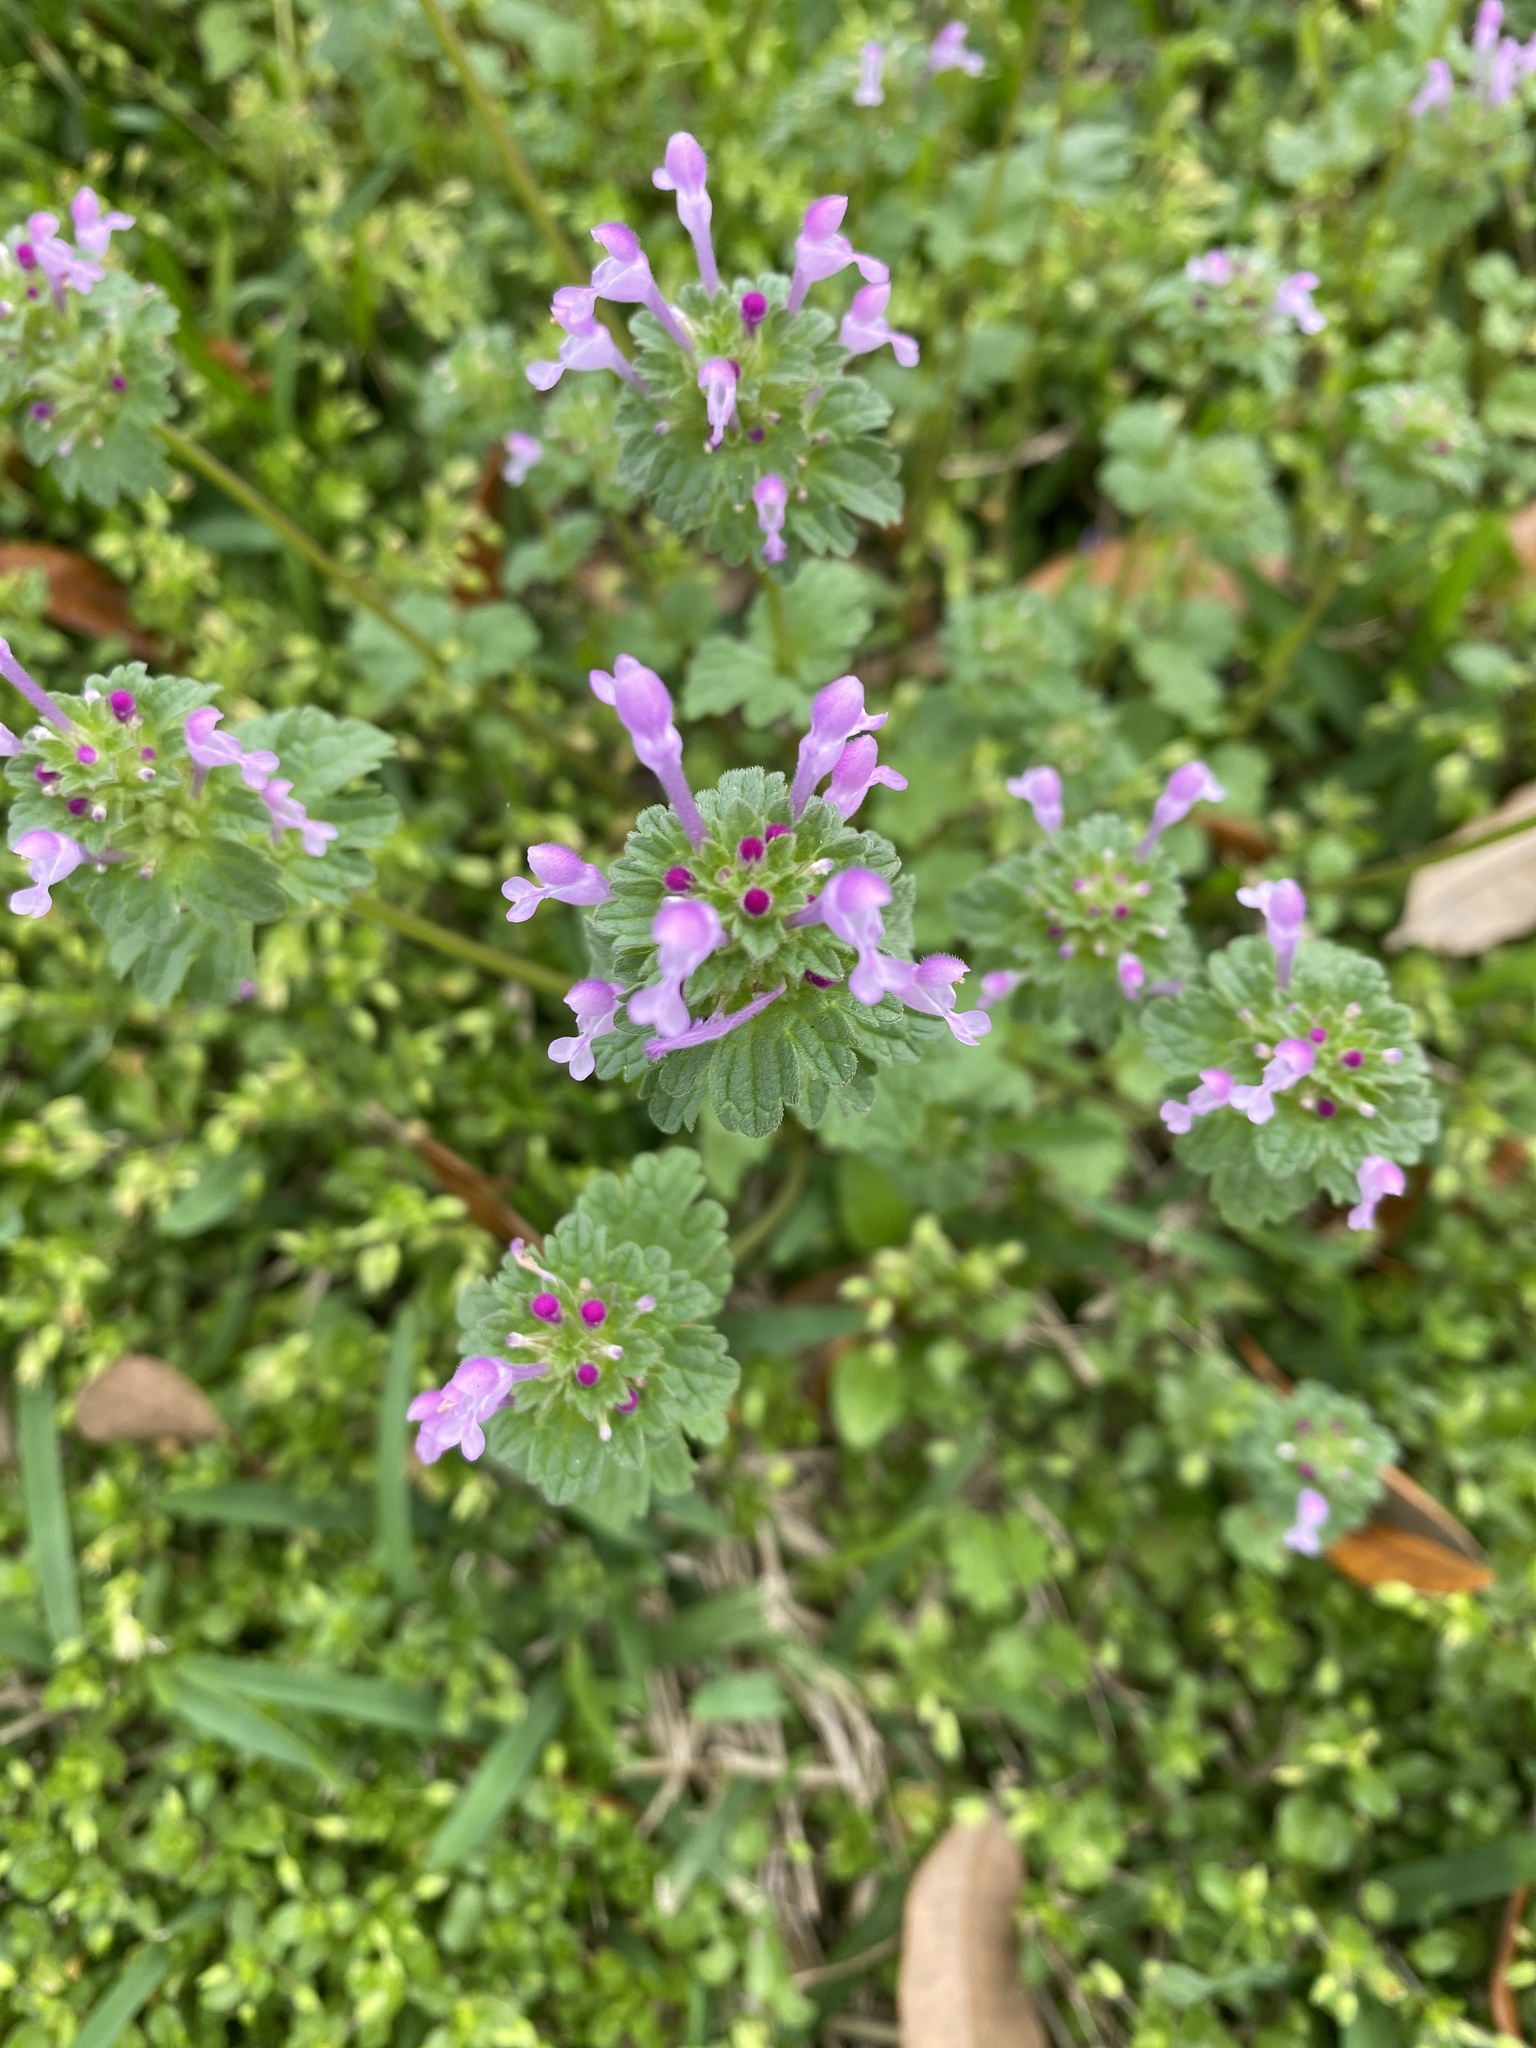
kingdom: Plantae
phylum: Tracheophyta
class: Magnoliopsida
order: Lamiales
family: Lamiaceae
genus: Lamium
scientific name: Lamium amplexicaule
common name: Henbit dead-nettle
